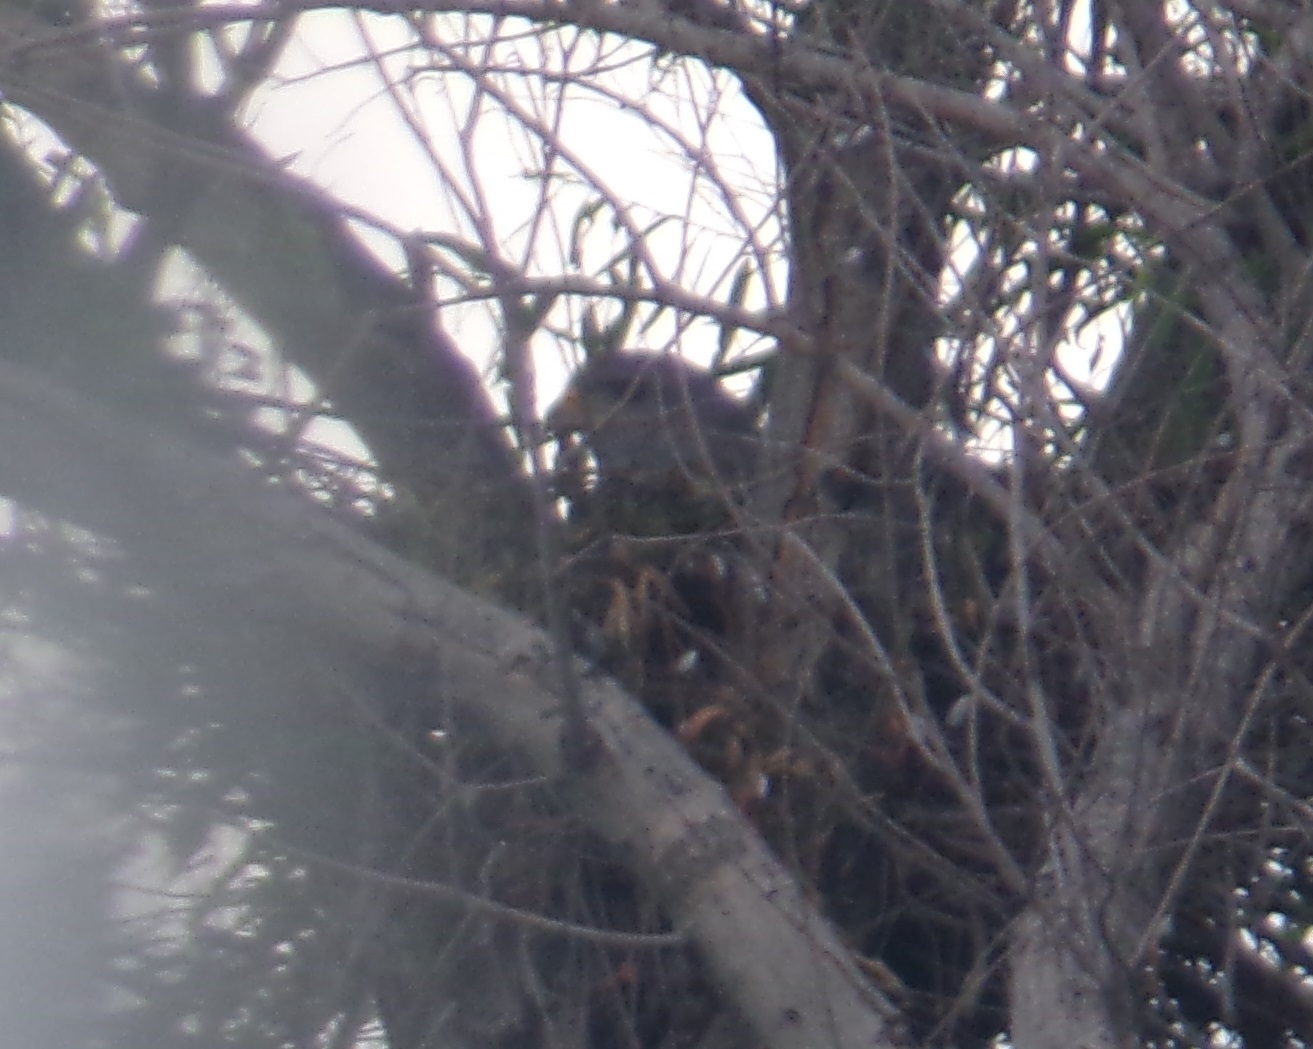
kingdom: Animalia
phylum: Chordata
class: Aves
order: Accipitriformes
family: Accipitridae
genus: Buteo
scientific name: Buteo nitidus
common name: Grey-lined hawk
